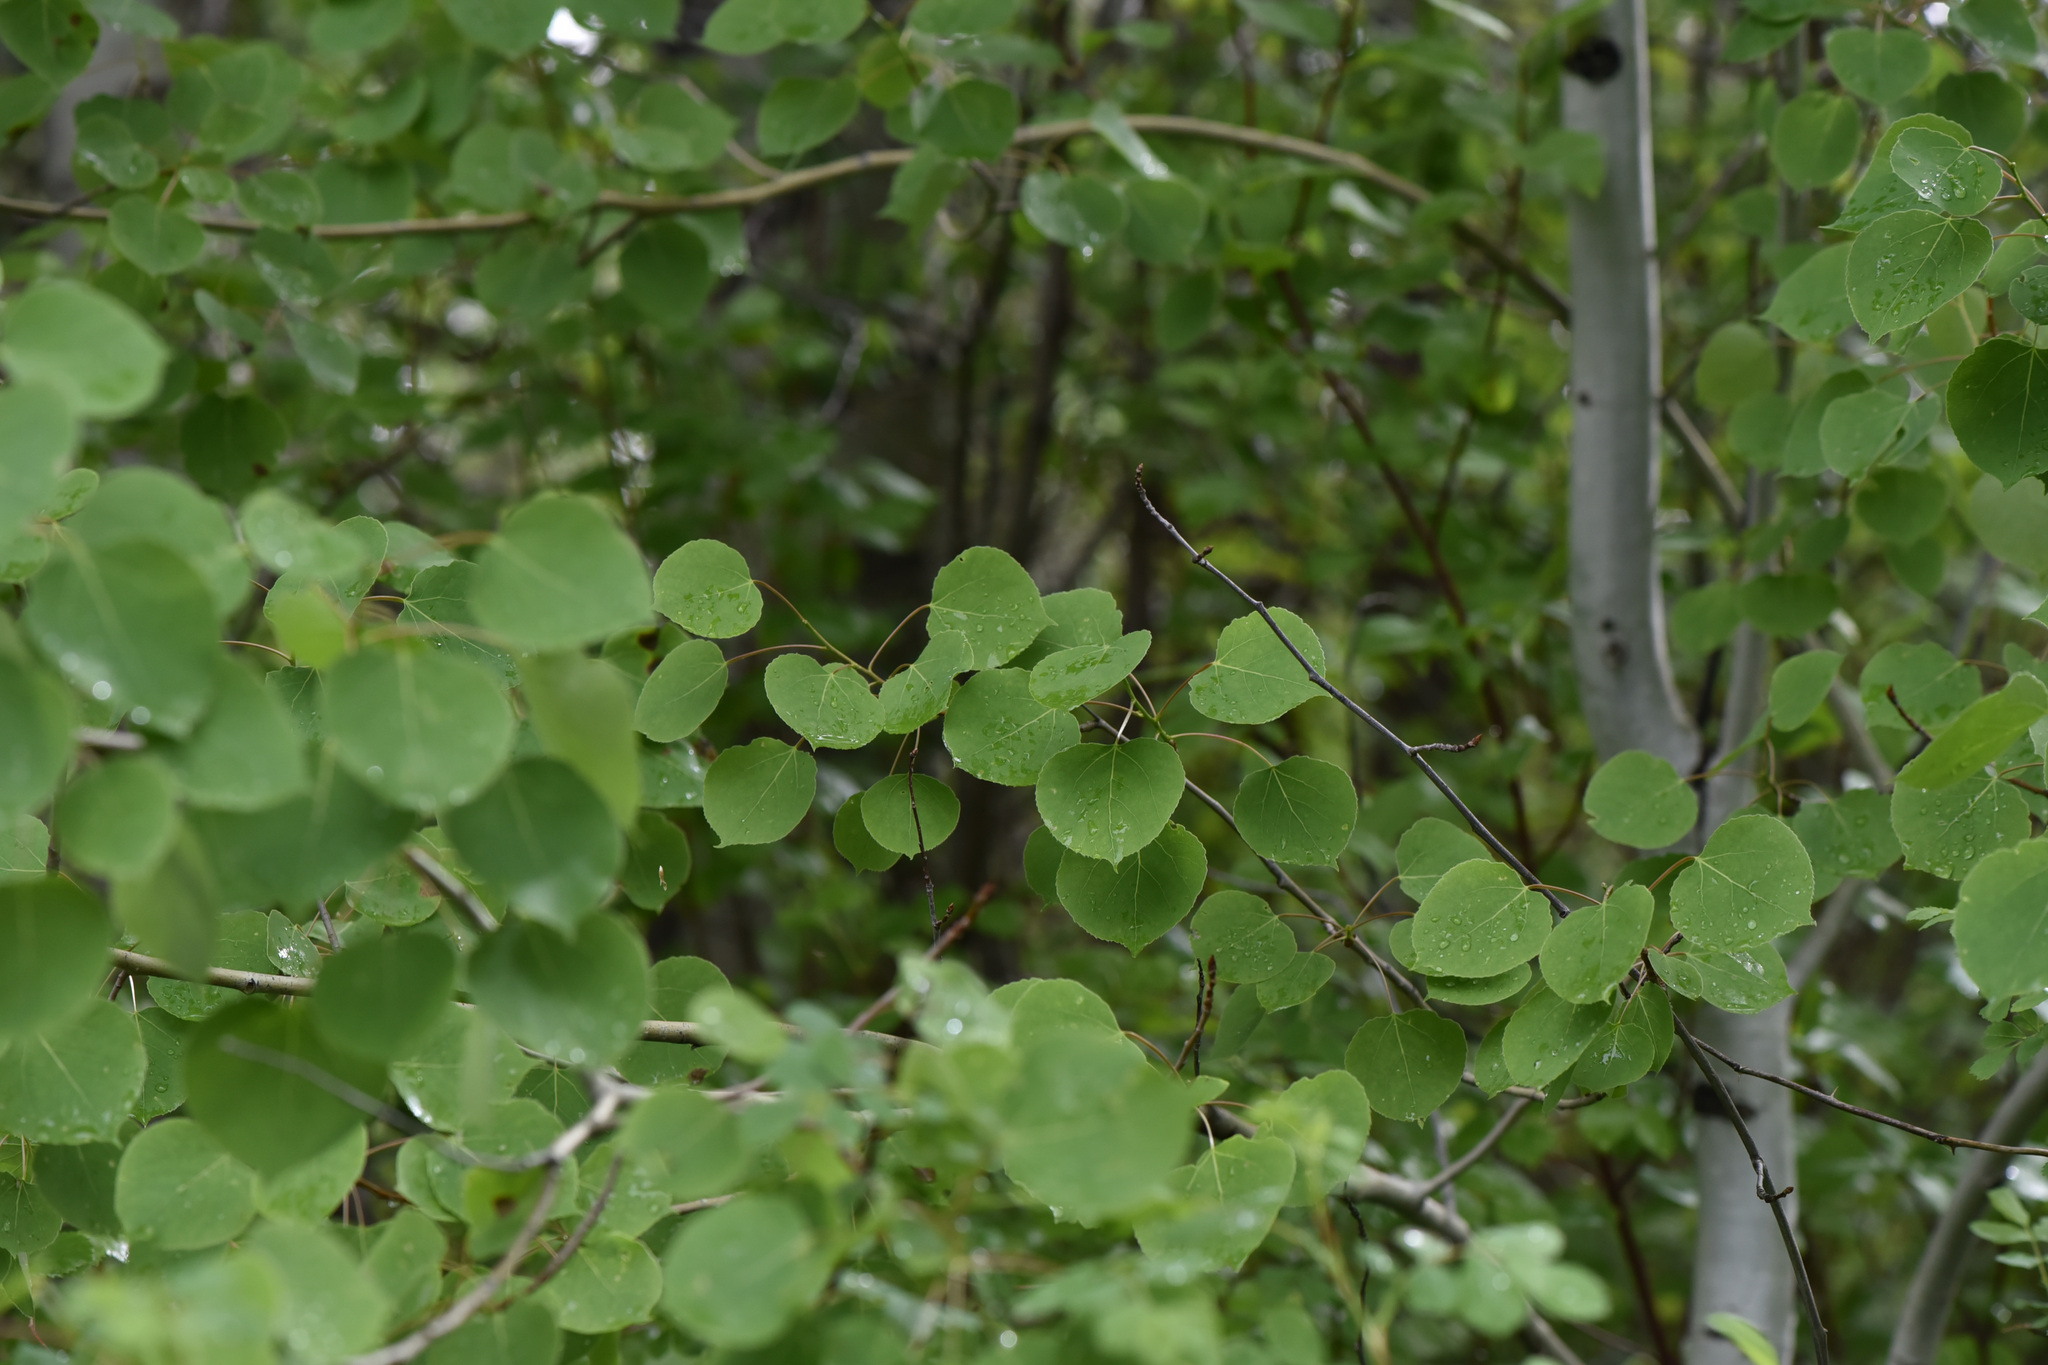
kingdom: Plantae
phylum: Tracheophyta
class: Magnoliopsida
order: Malpighiales
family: Salicaceae
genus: Populus
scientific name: Populus tremuloides
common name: Quaking aspen
